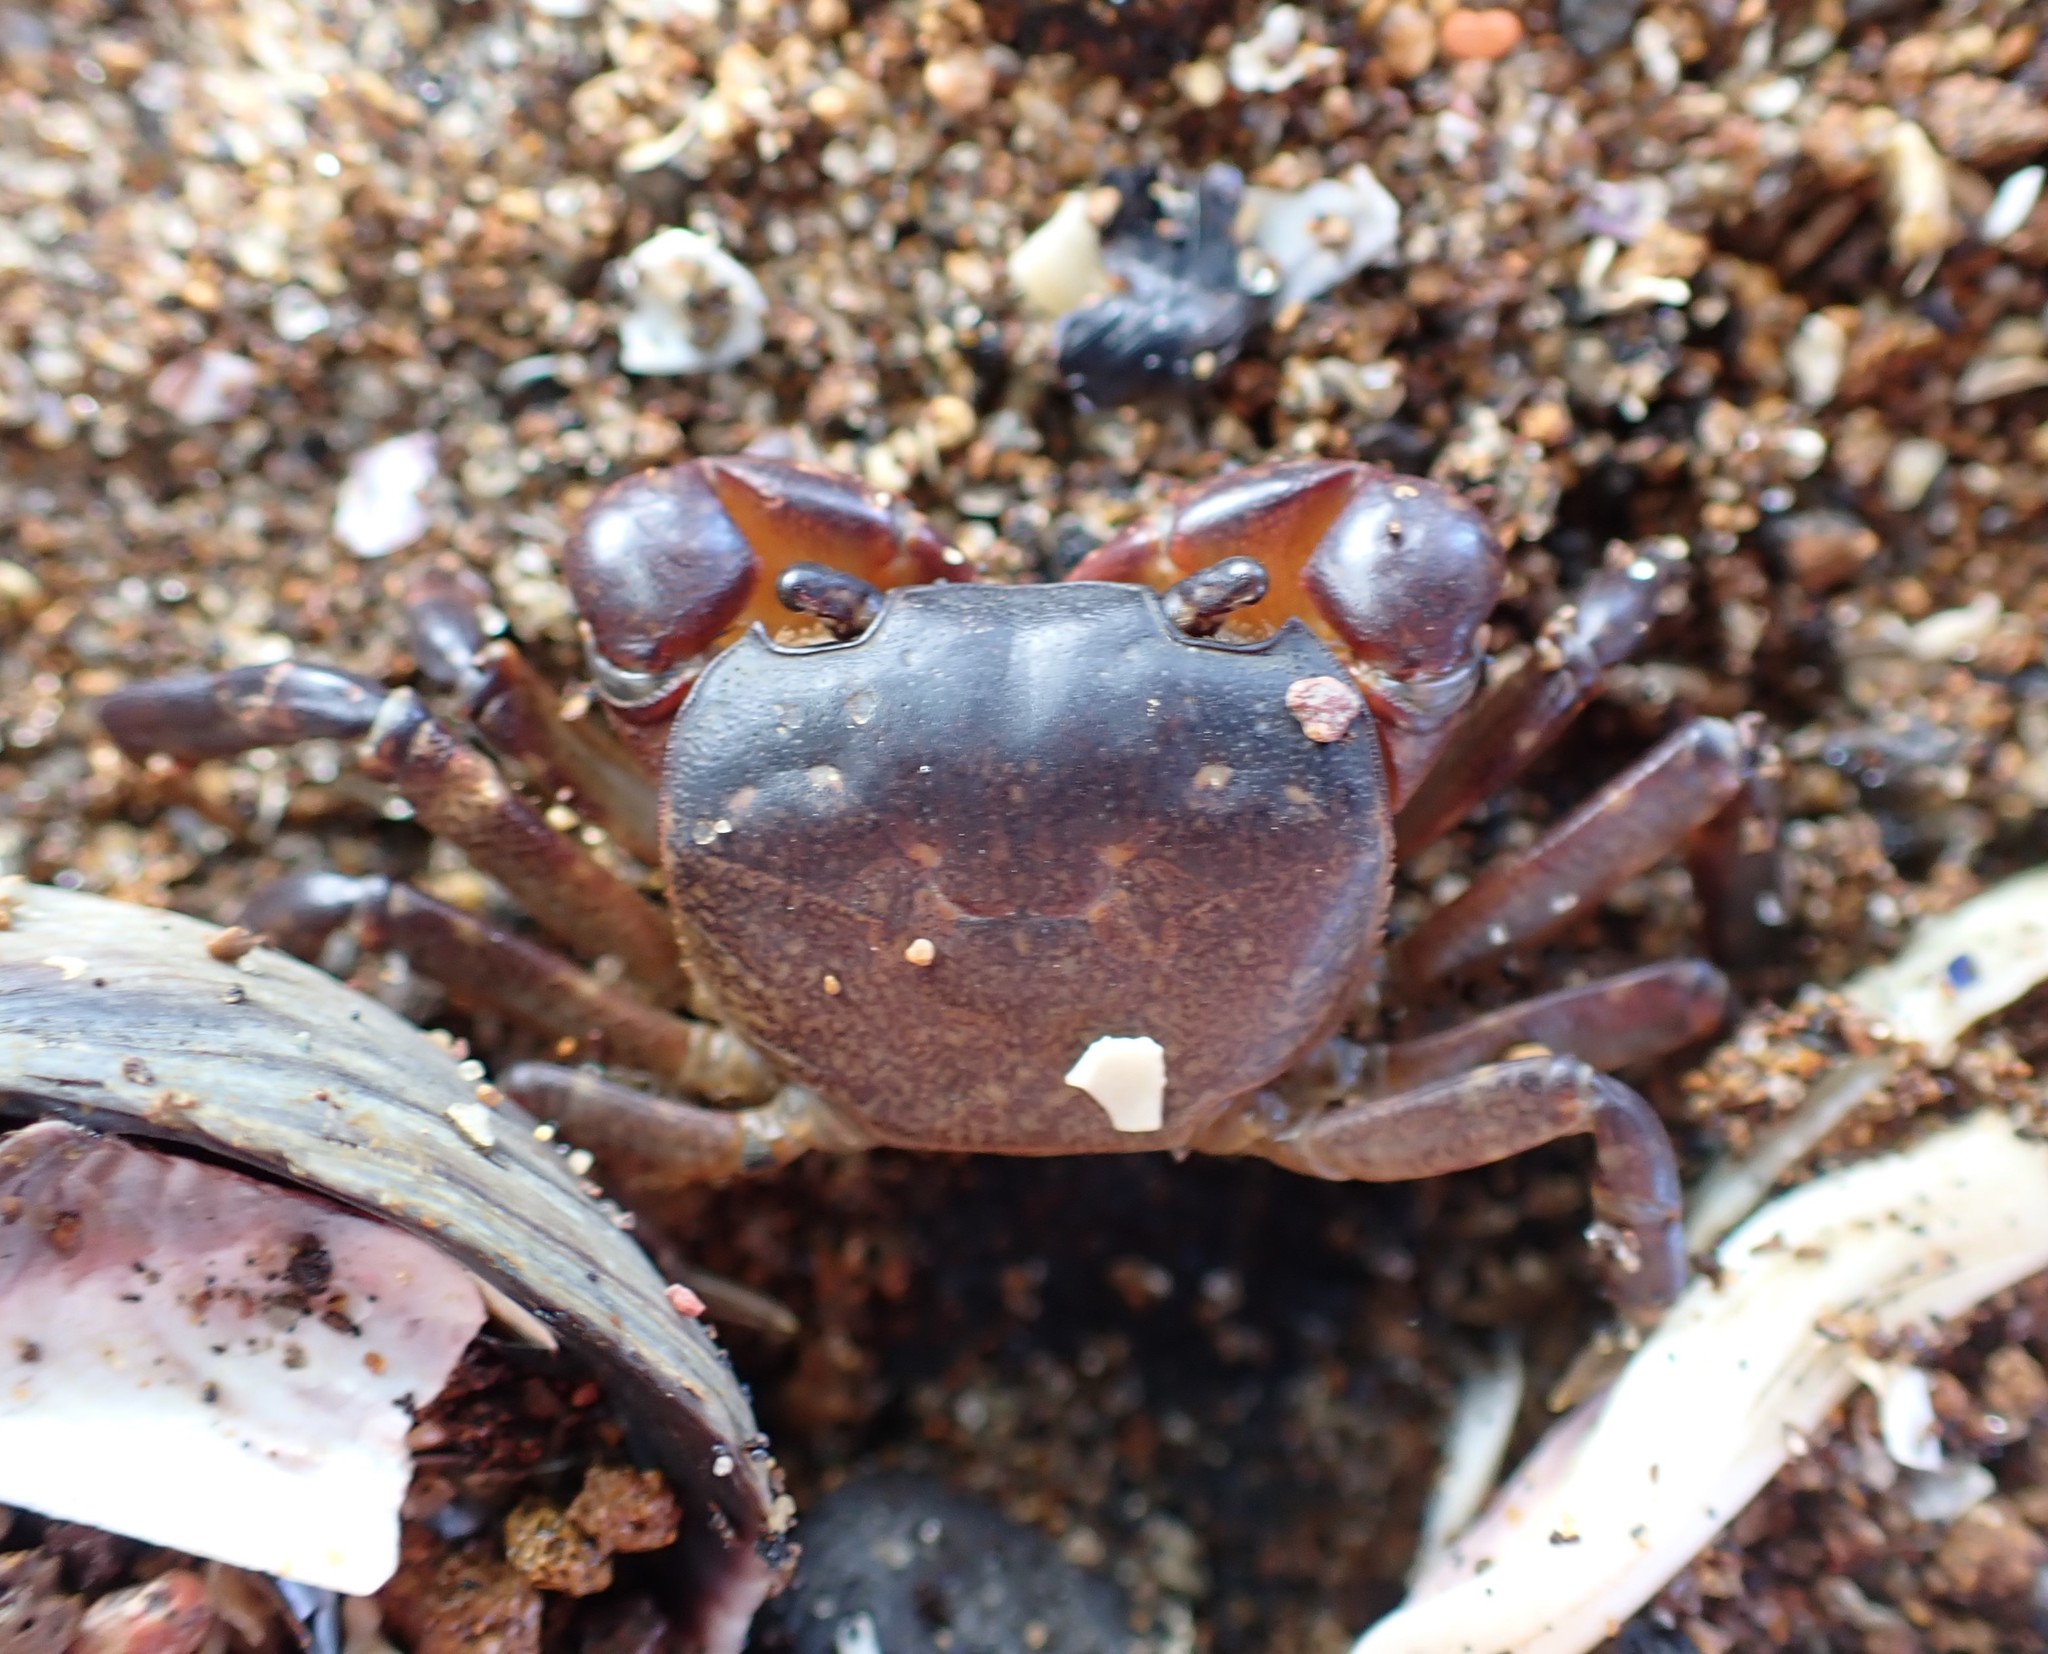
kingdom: Animalia
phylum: Arthropoda
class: Malacostraca
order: Decapoda
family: Varunidae
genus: Cyclograpsus
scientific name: Cyclograpsus lavauxi
